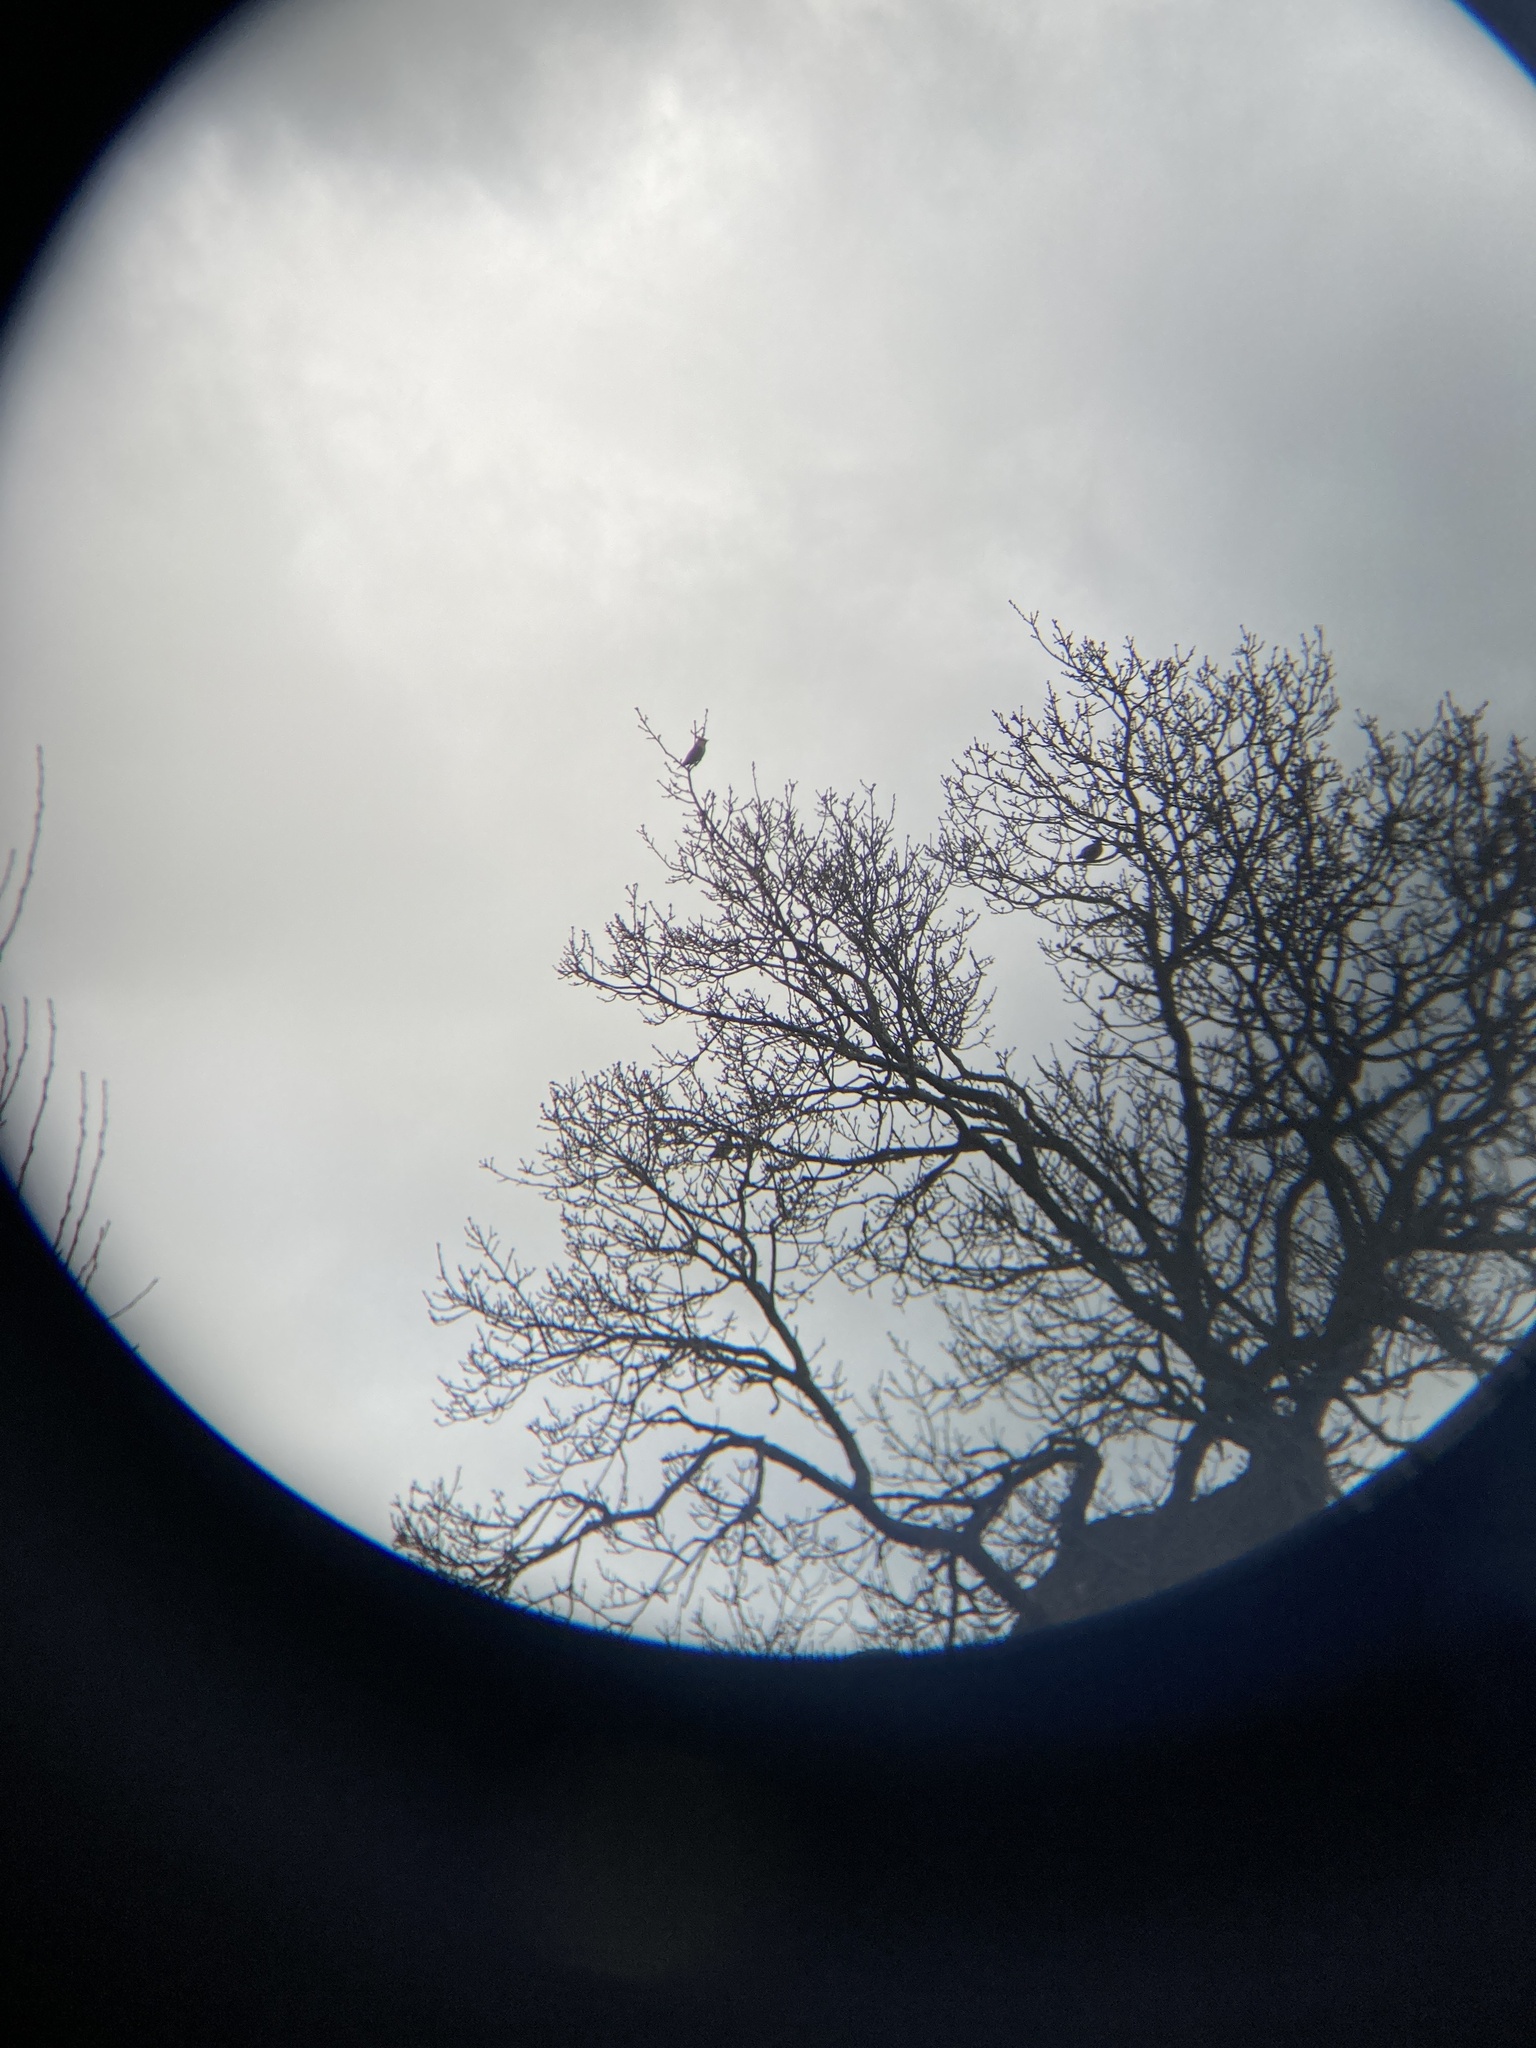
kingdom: Animalia
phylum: Chordata
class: Aves
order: Passeriformes
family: Bombycillidae
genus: Bombycilla
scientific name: Bombycilla garrulus
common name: Bohemian waxwing
